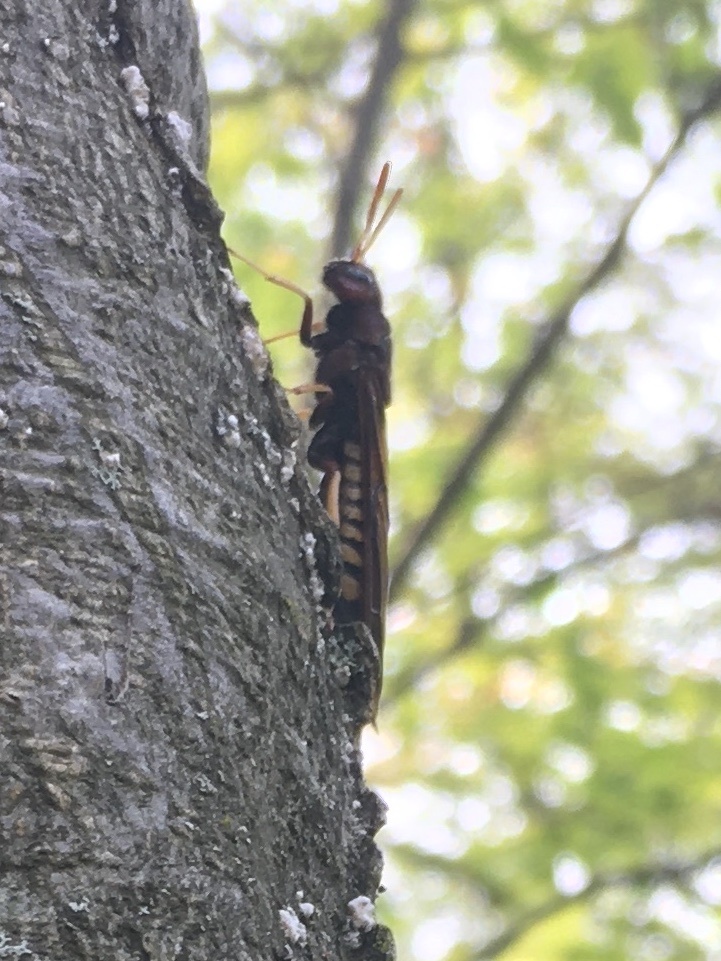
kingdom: Animalia
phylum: Arthropoda
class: Insecta
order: Hymenoptera
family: Siricidae
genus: Tremex
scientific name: Tremex columba
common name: Wasp
